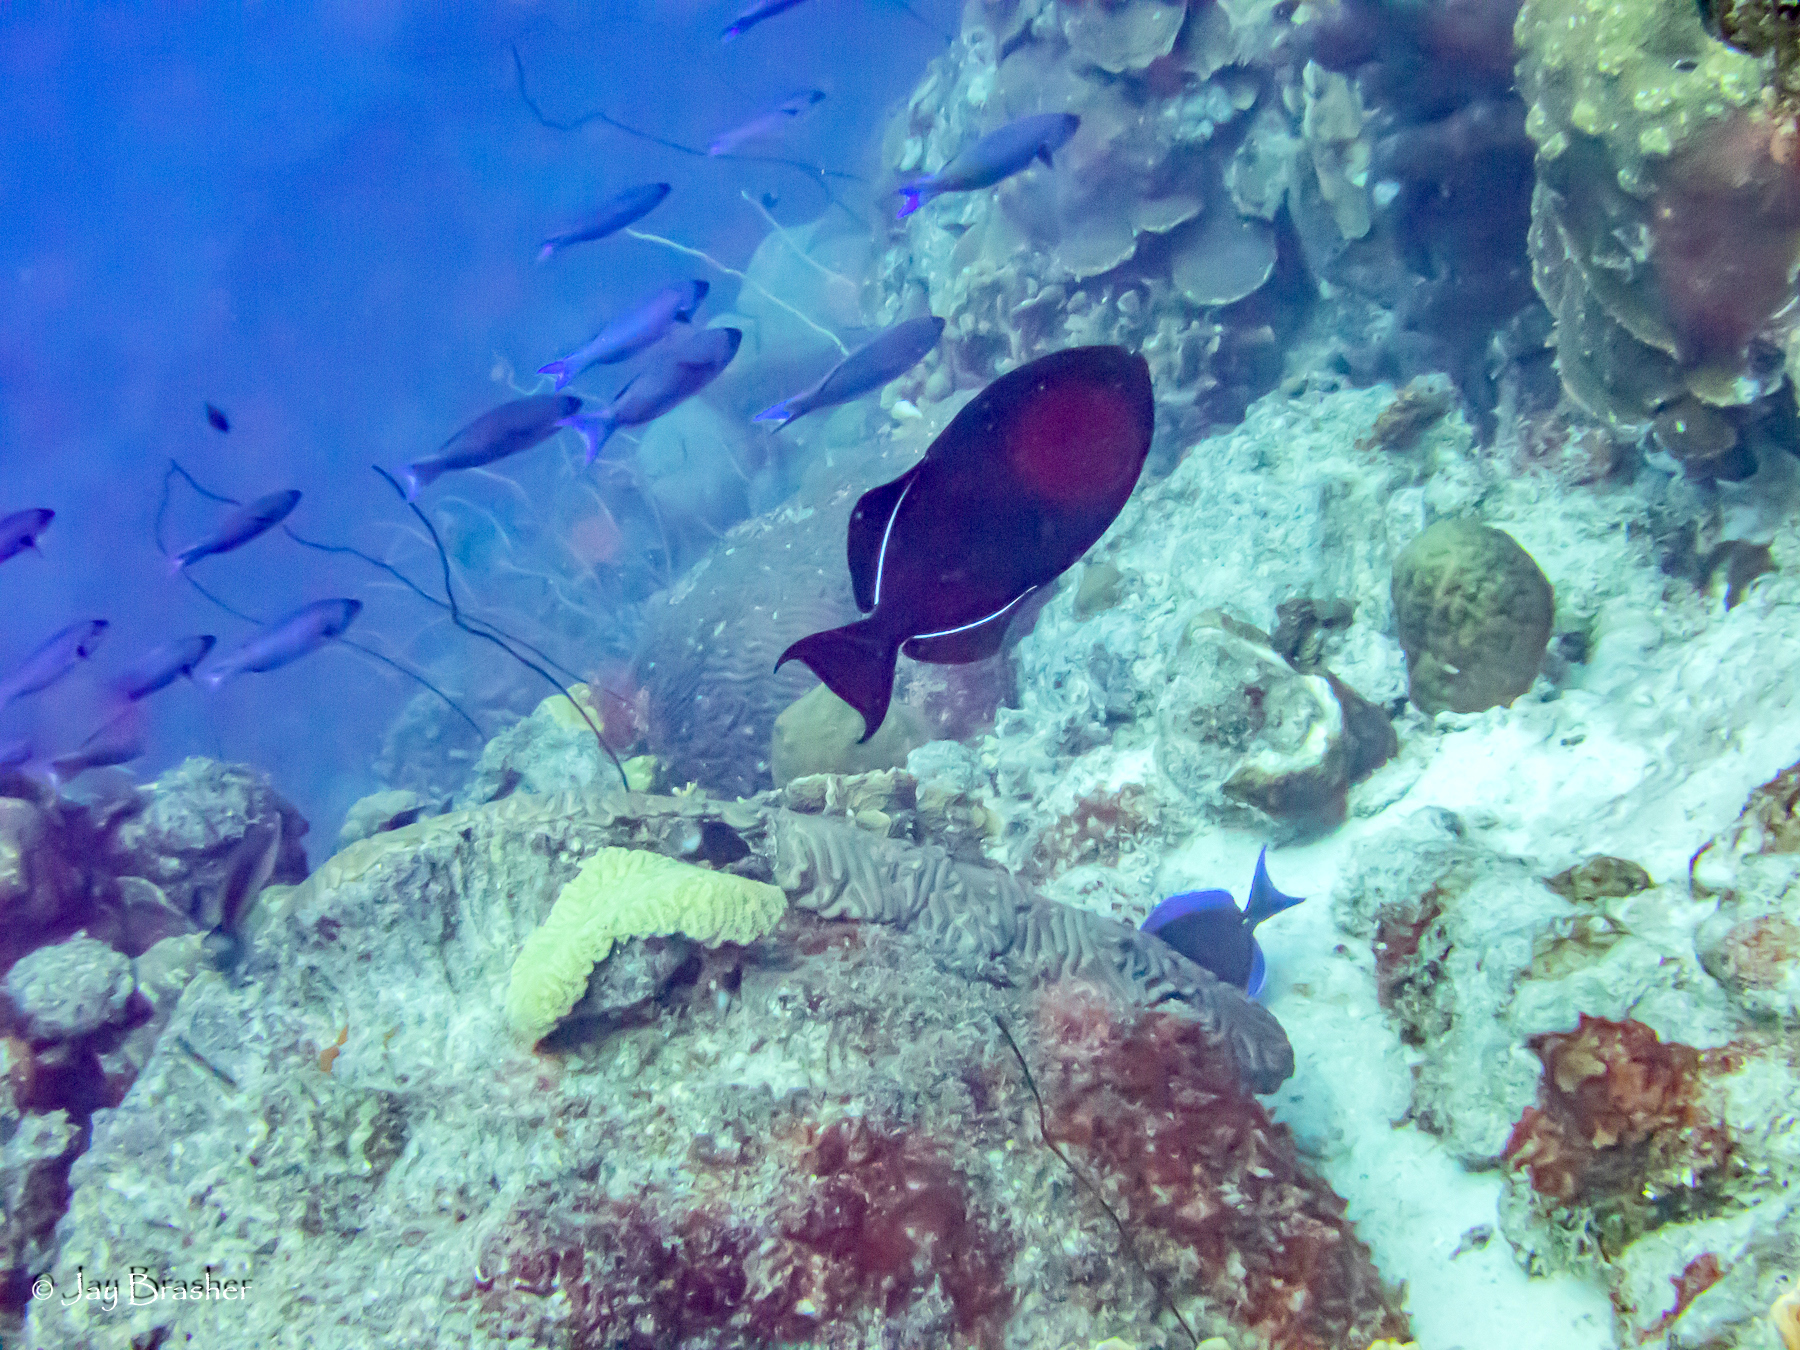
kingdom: Animalia
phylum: Chordata
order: Tetraodontiformes
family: Balistidae
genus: Melichthys
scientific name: Melichthys niger
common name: Black durgon
